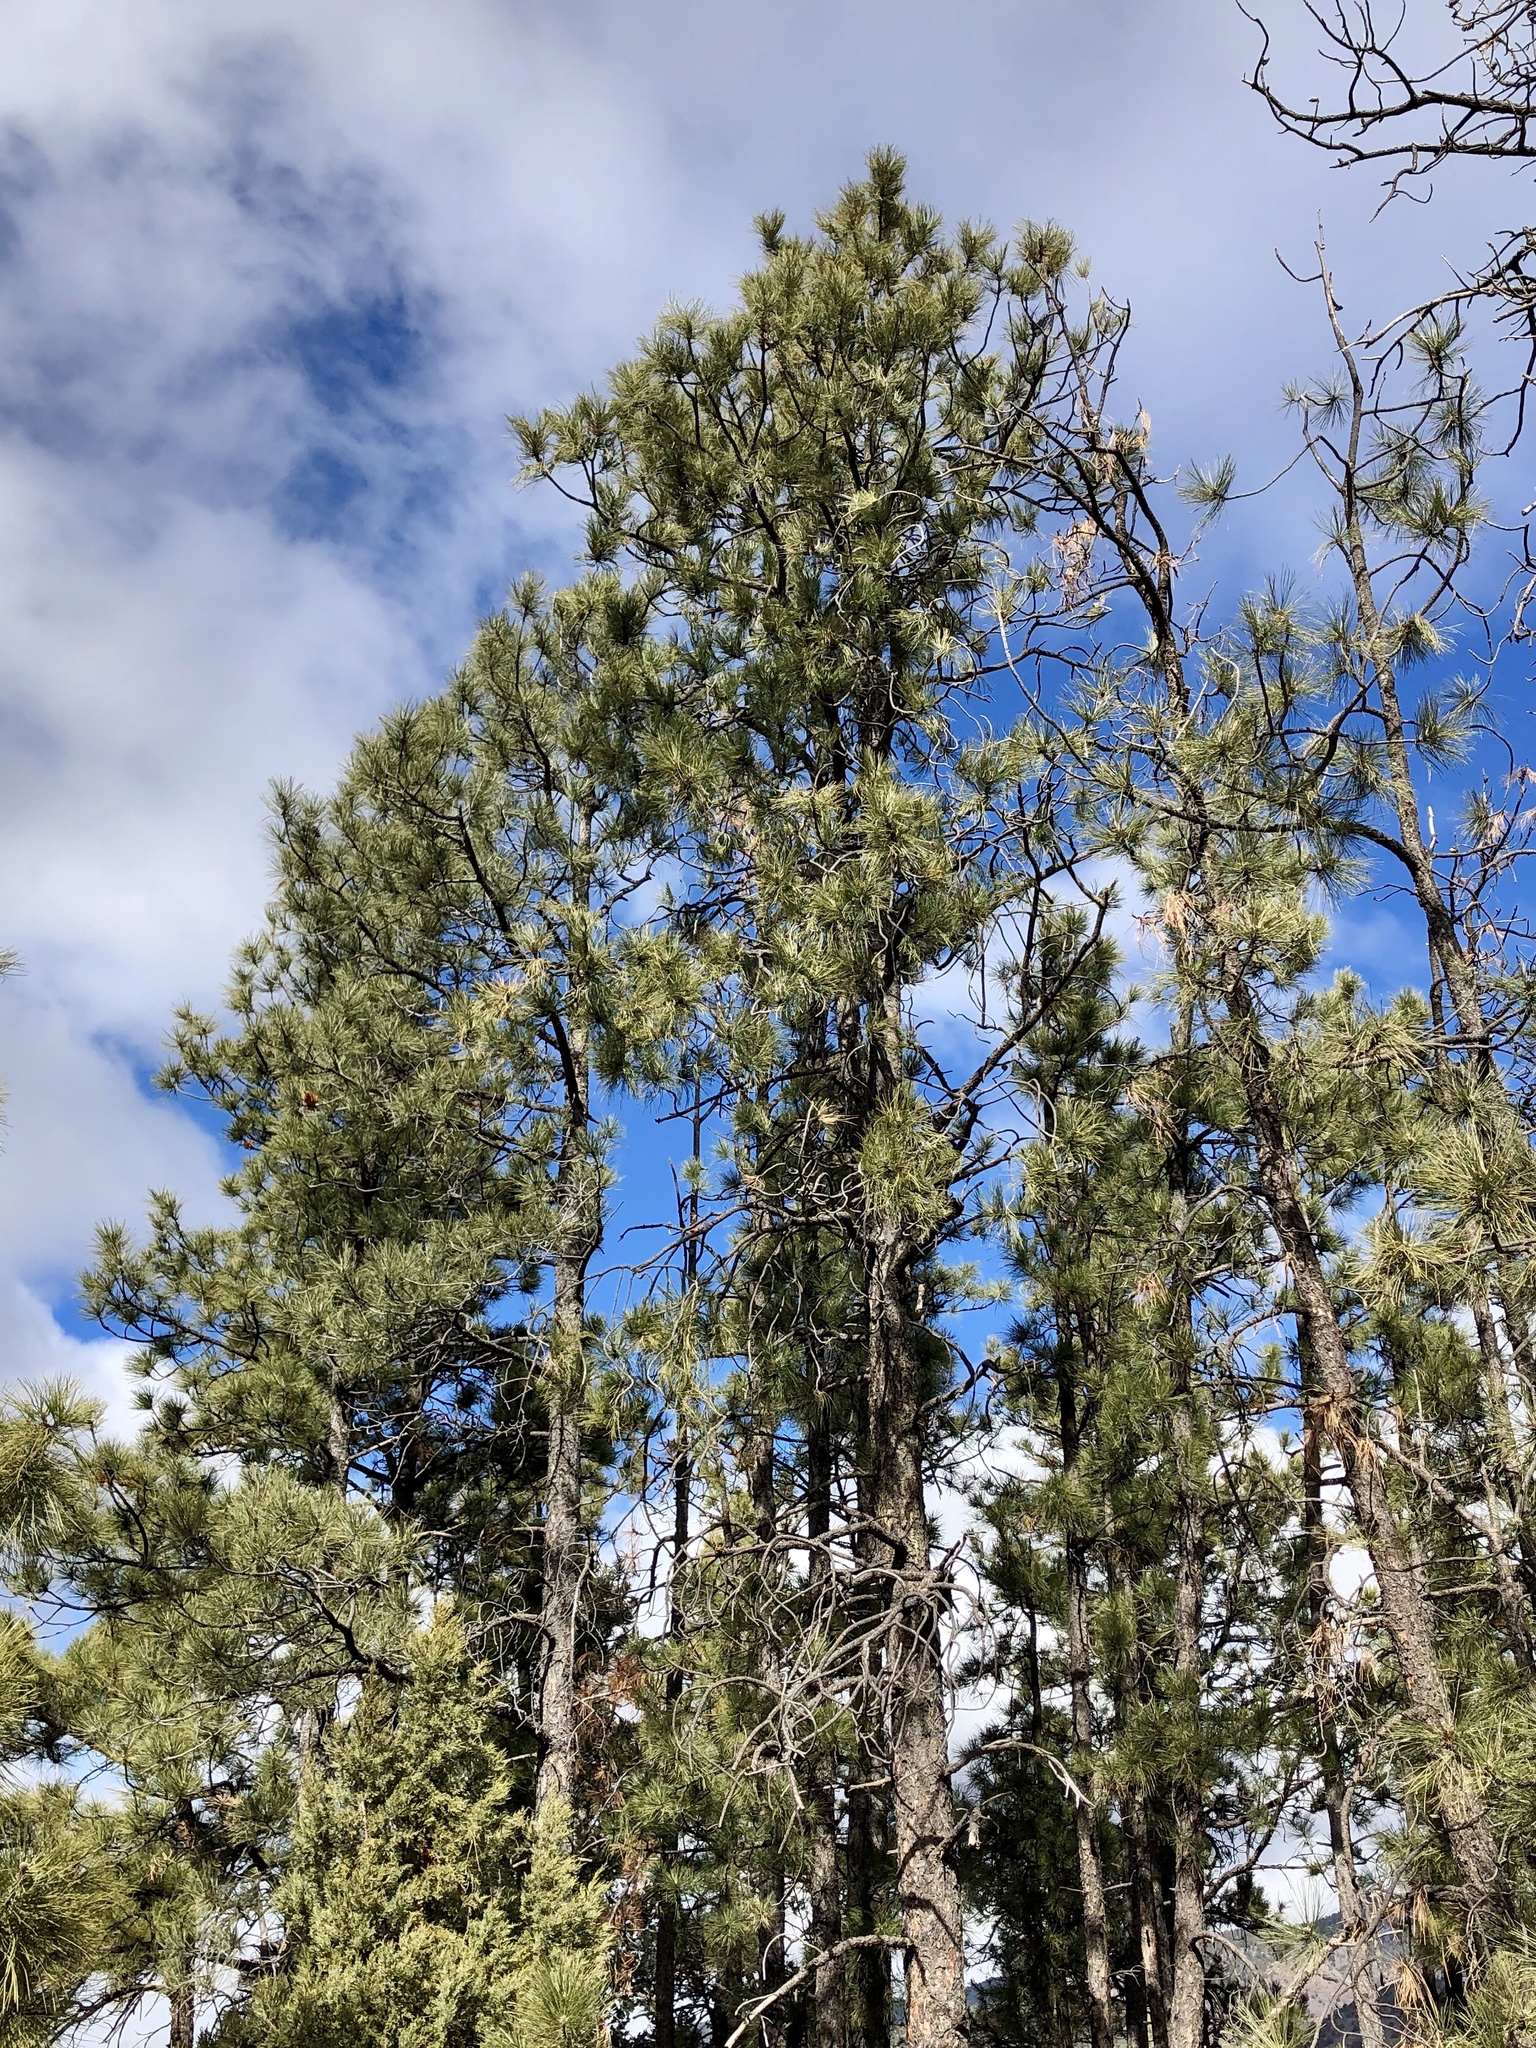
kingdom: Plantae
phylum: Tracheophyta
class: Pinopsida
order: Pinales
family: Pinaceae
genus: Pinus
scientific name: Pinus ponderosa
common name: Western yellow-pine
